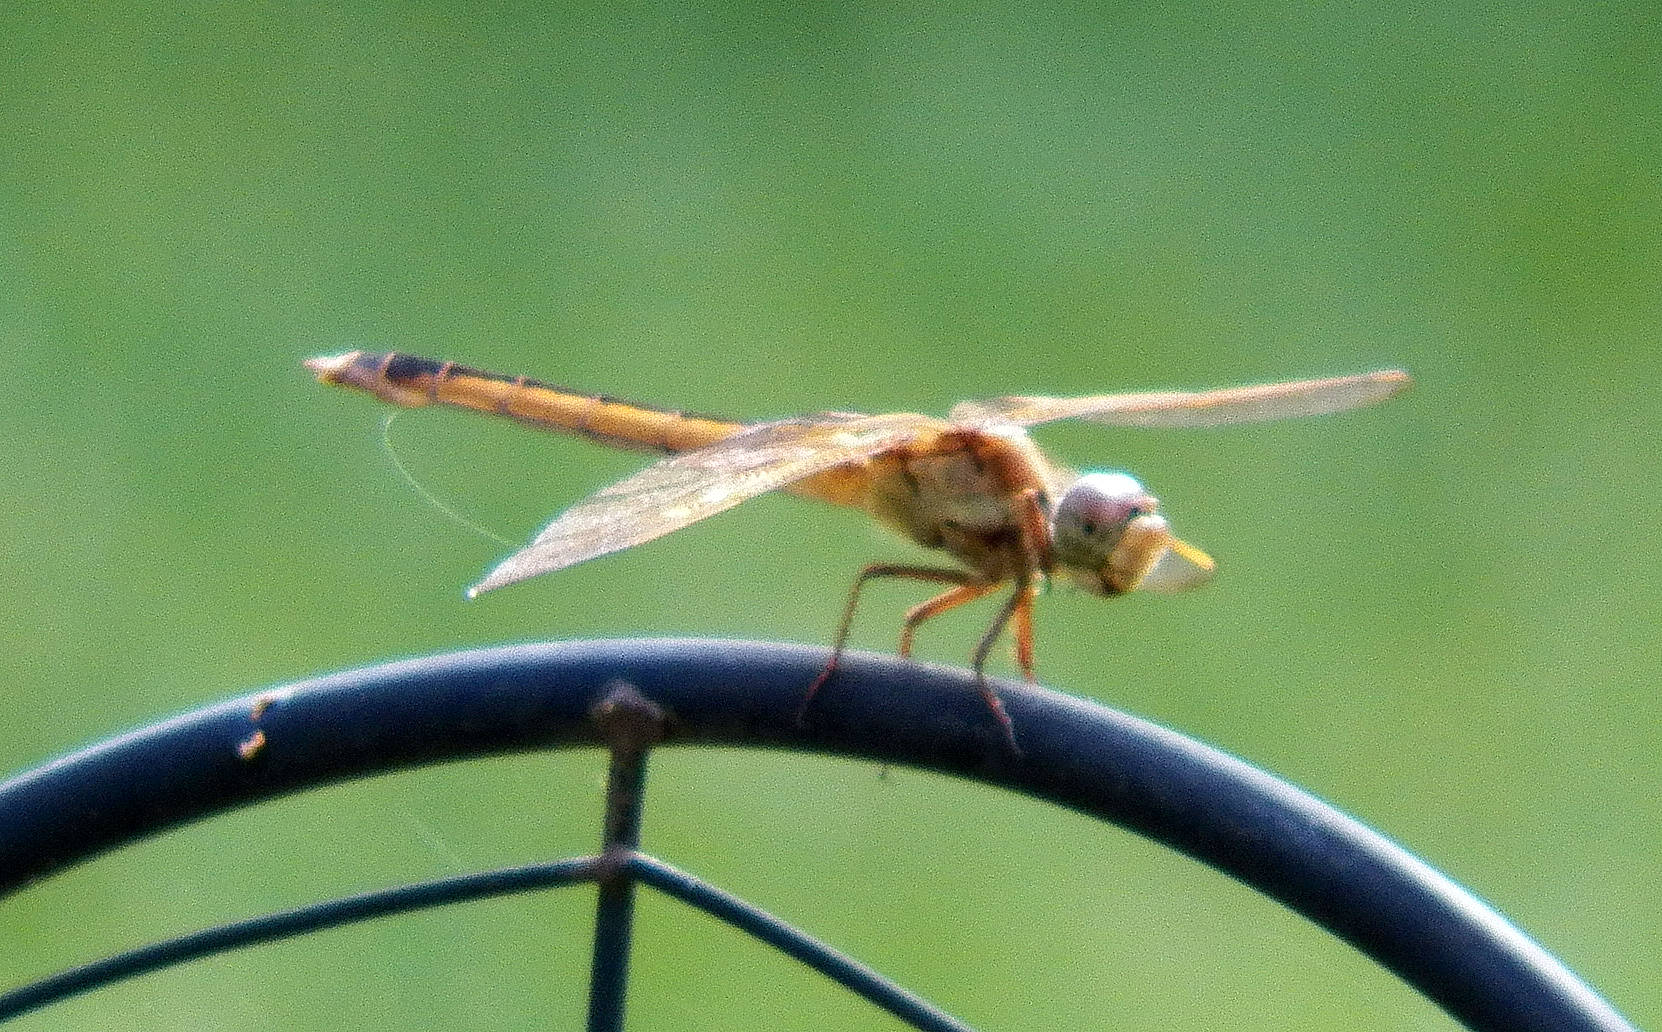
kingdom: Animalia
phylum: Arthropoda
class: Insecta
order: Odonata
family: Libellulidae
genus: Libellula
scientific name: Libellula needhami
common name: Needham's skimmer
